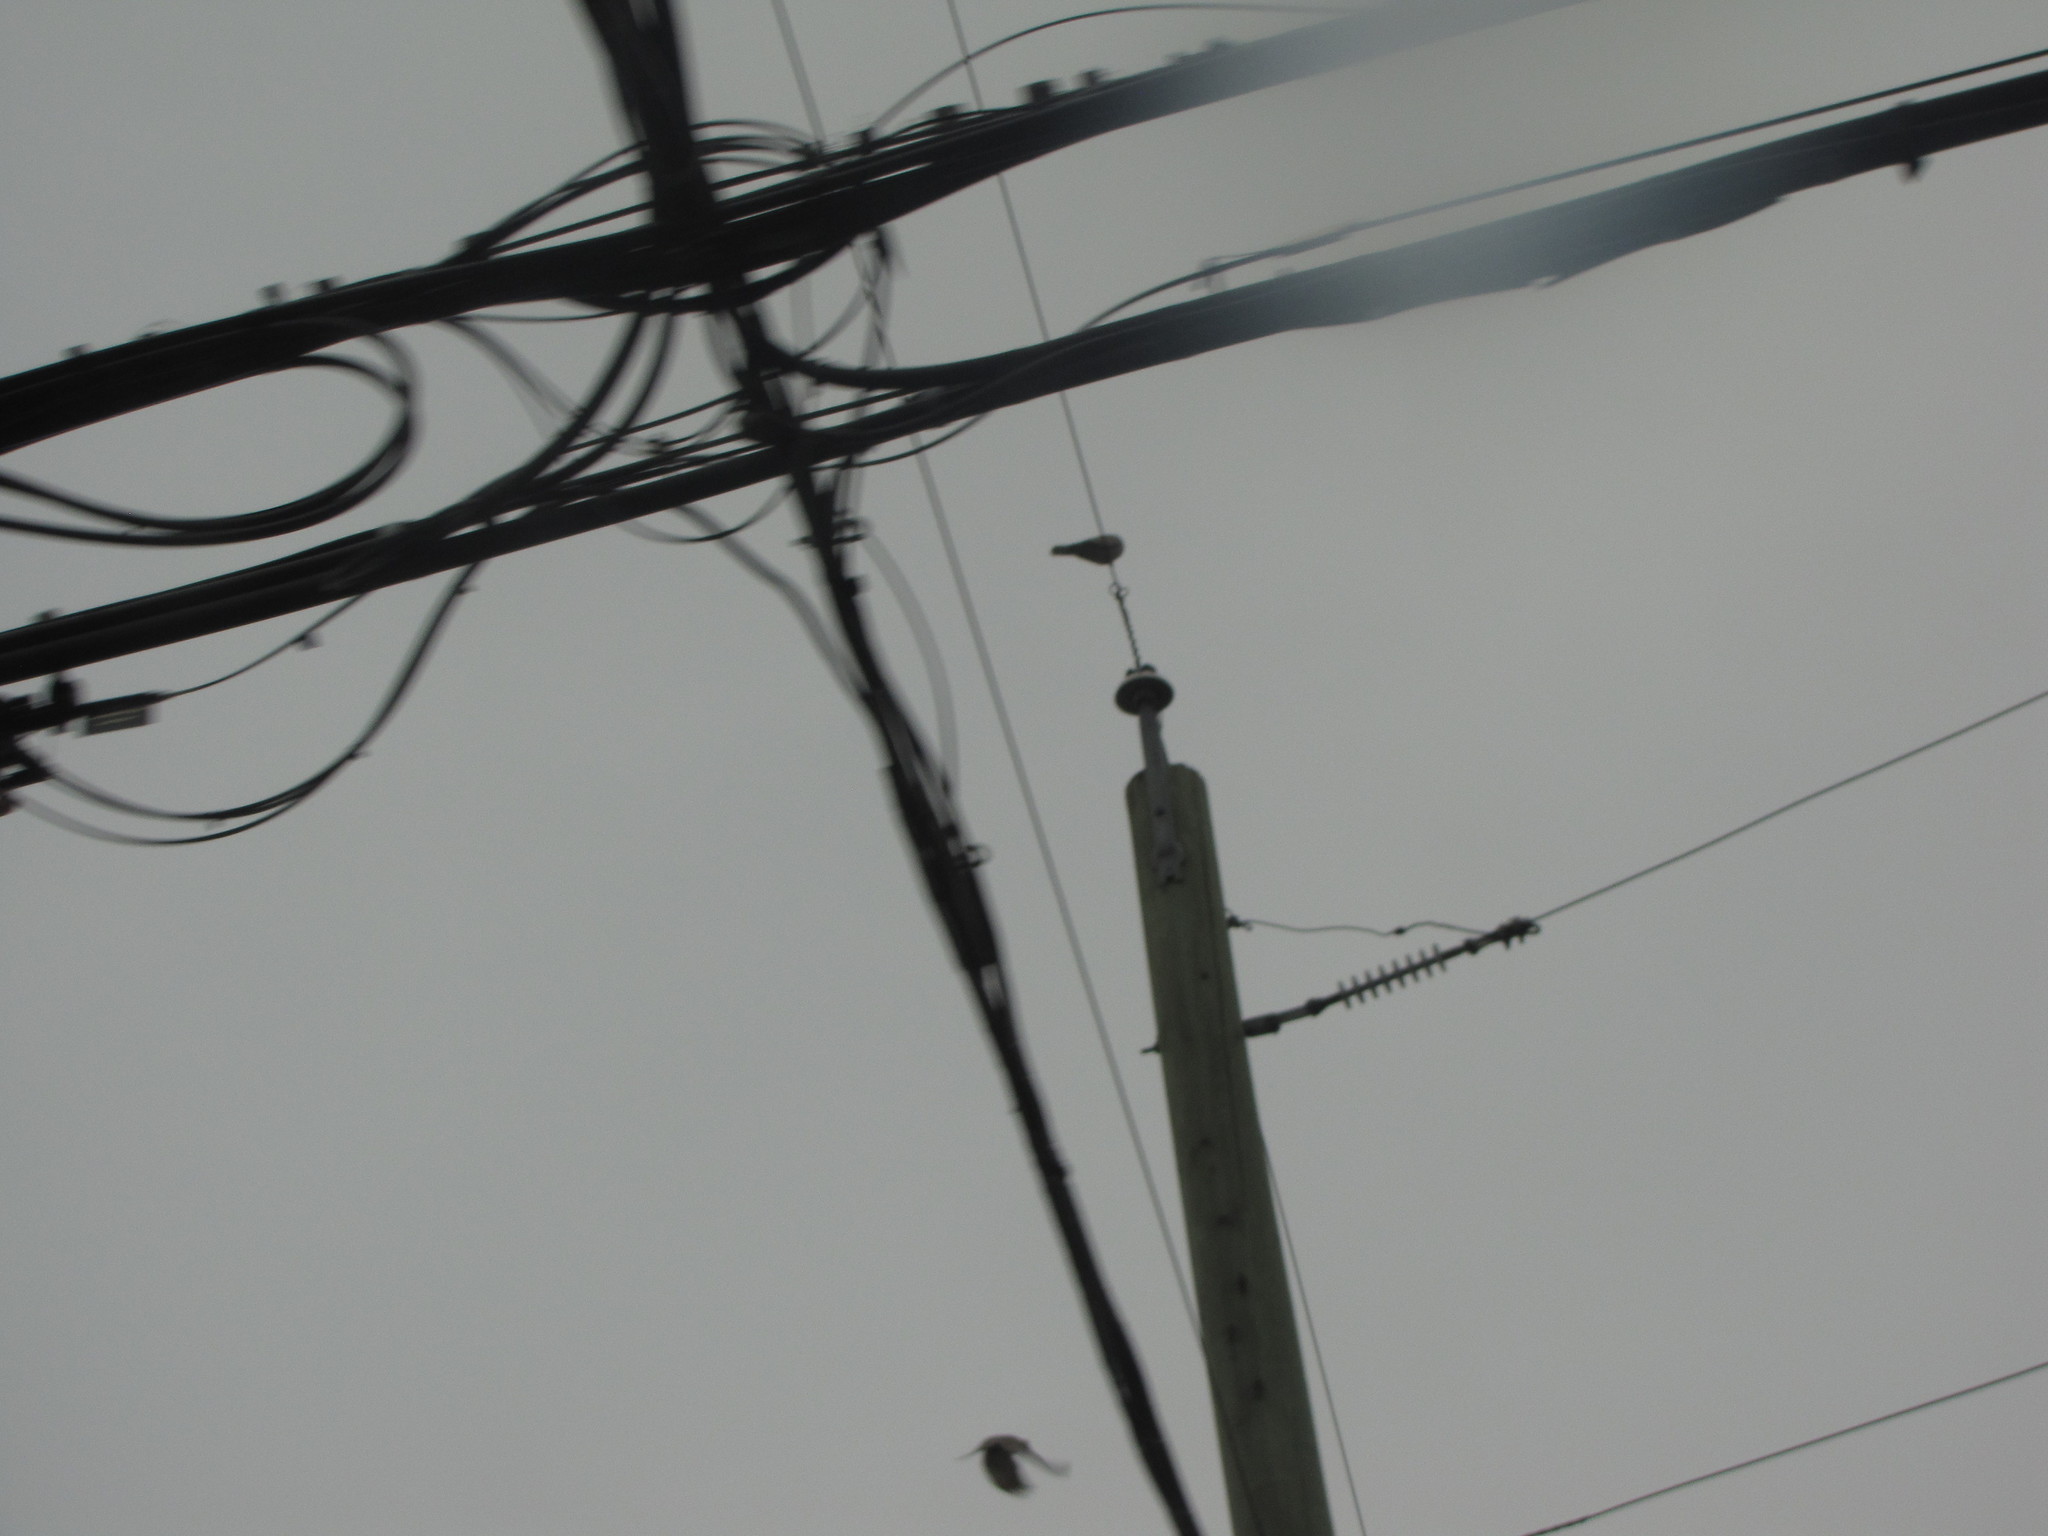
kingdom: Animalia
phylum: Chordata
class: Aves
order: Columbiformes
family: Columbidae
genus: Streptopelia
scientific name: Streptopelia decaocto
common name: Eurasian collared dove
